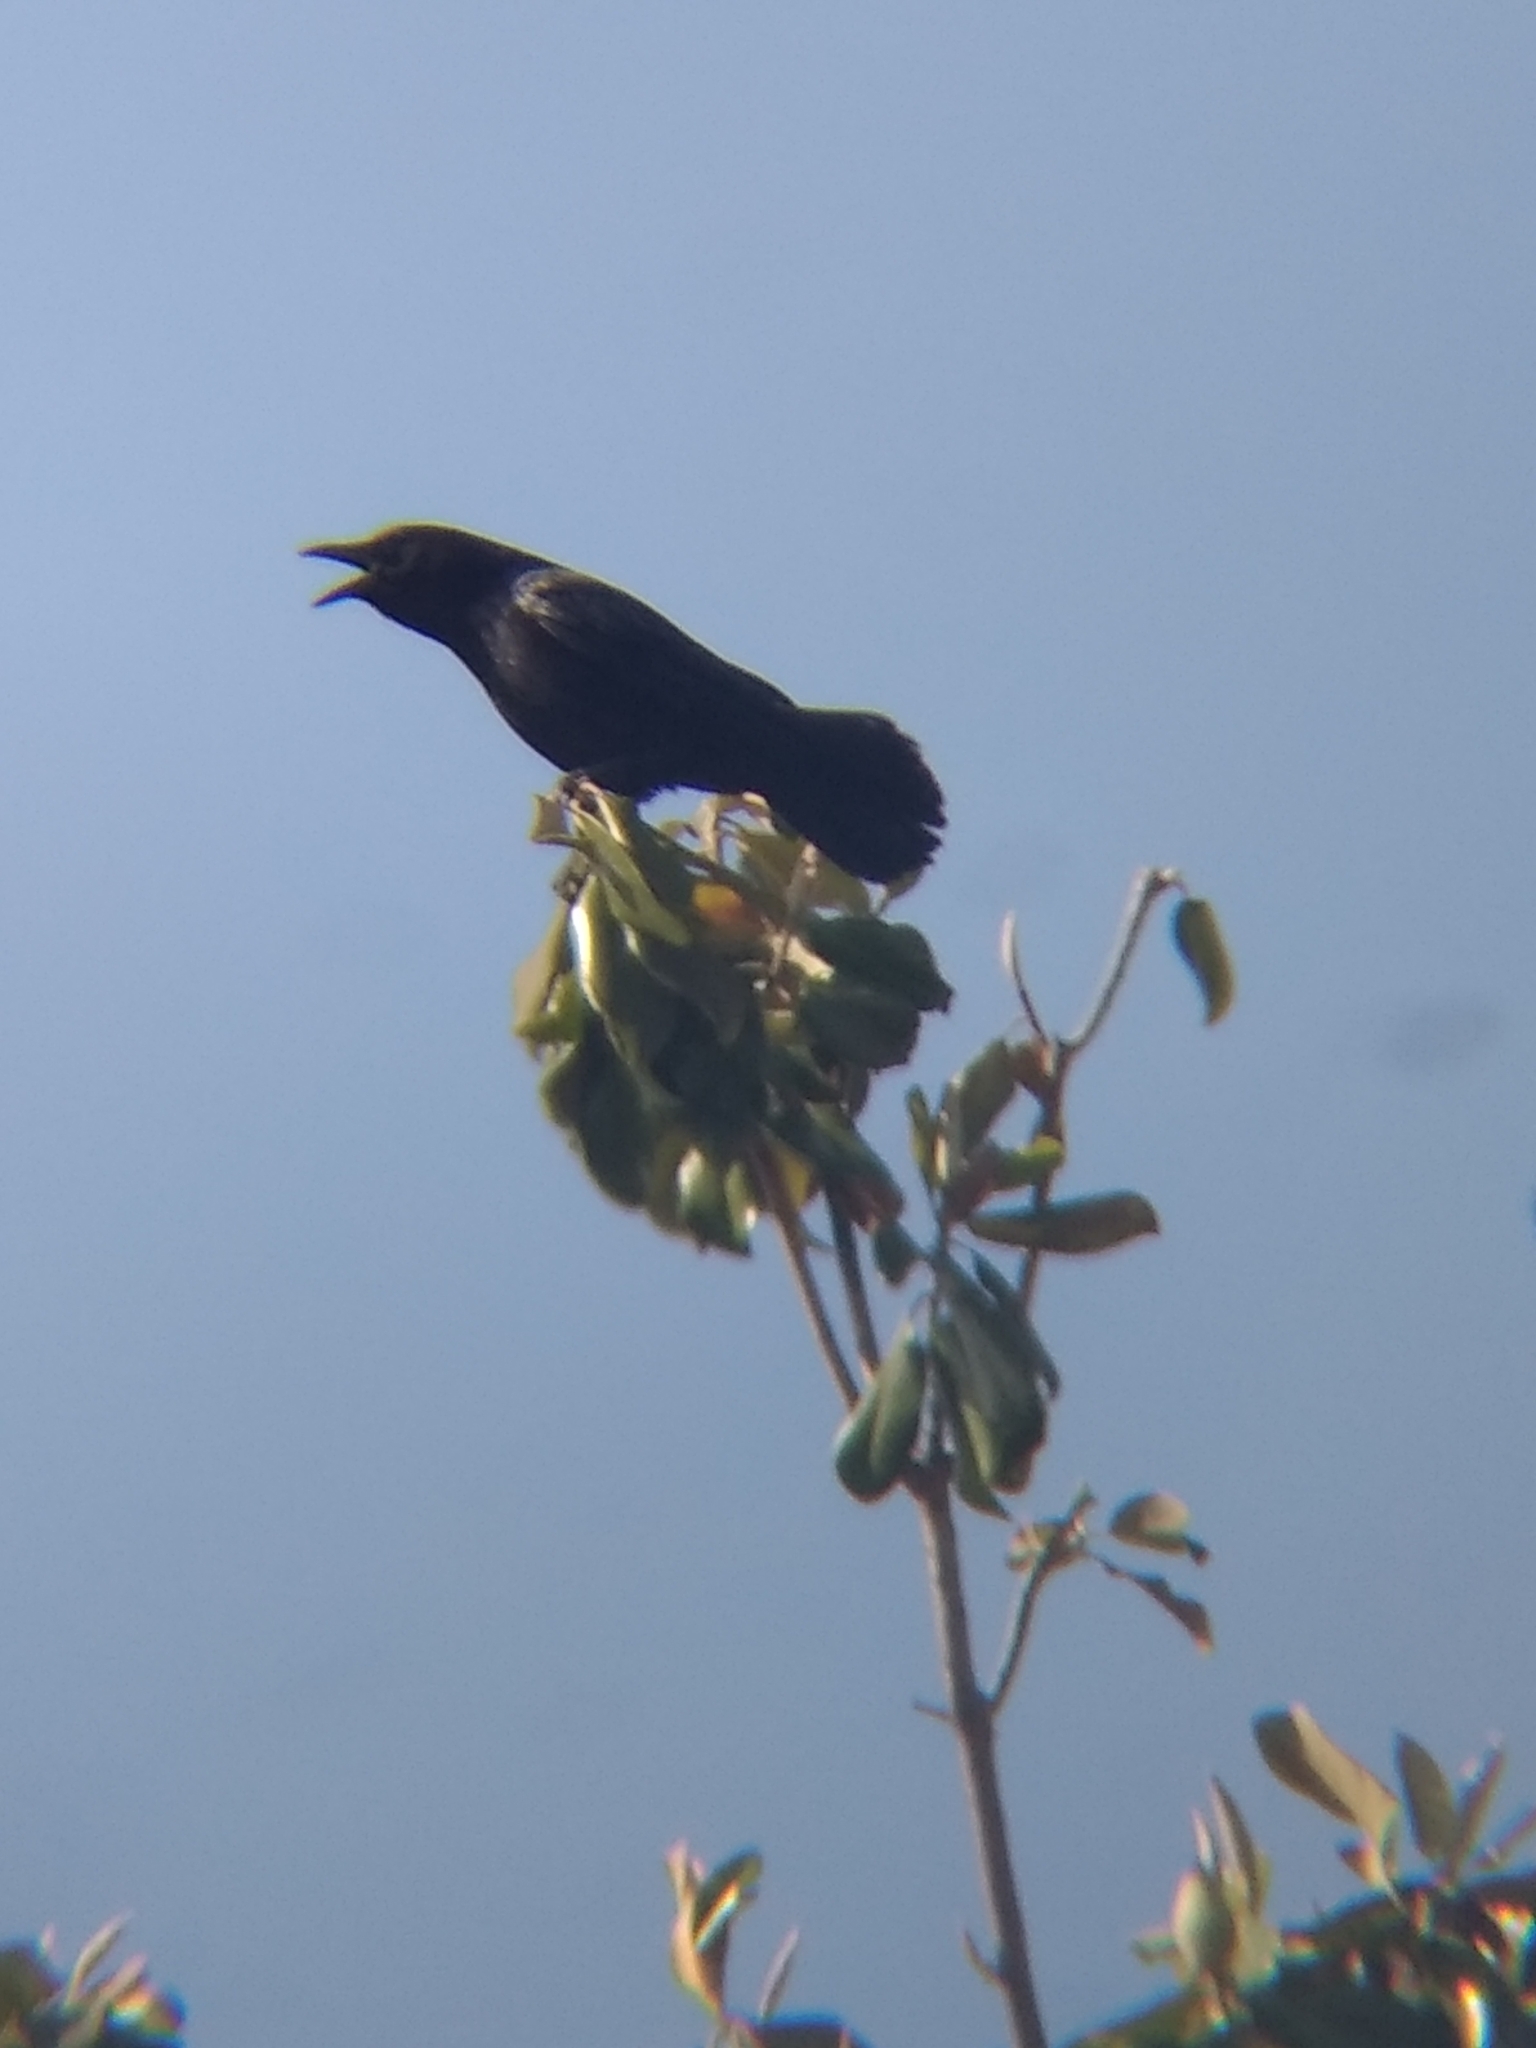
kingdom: Animalia
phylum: Chordata
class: Aves
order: Passeriformes
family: Corvidae
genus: Corvus
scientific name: Corvus brachyrhynchos
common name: American crow
